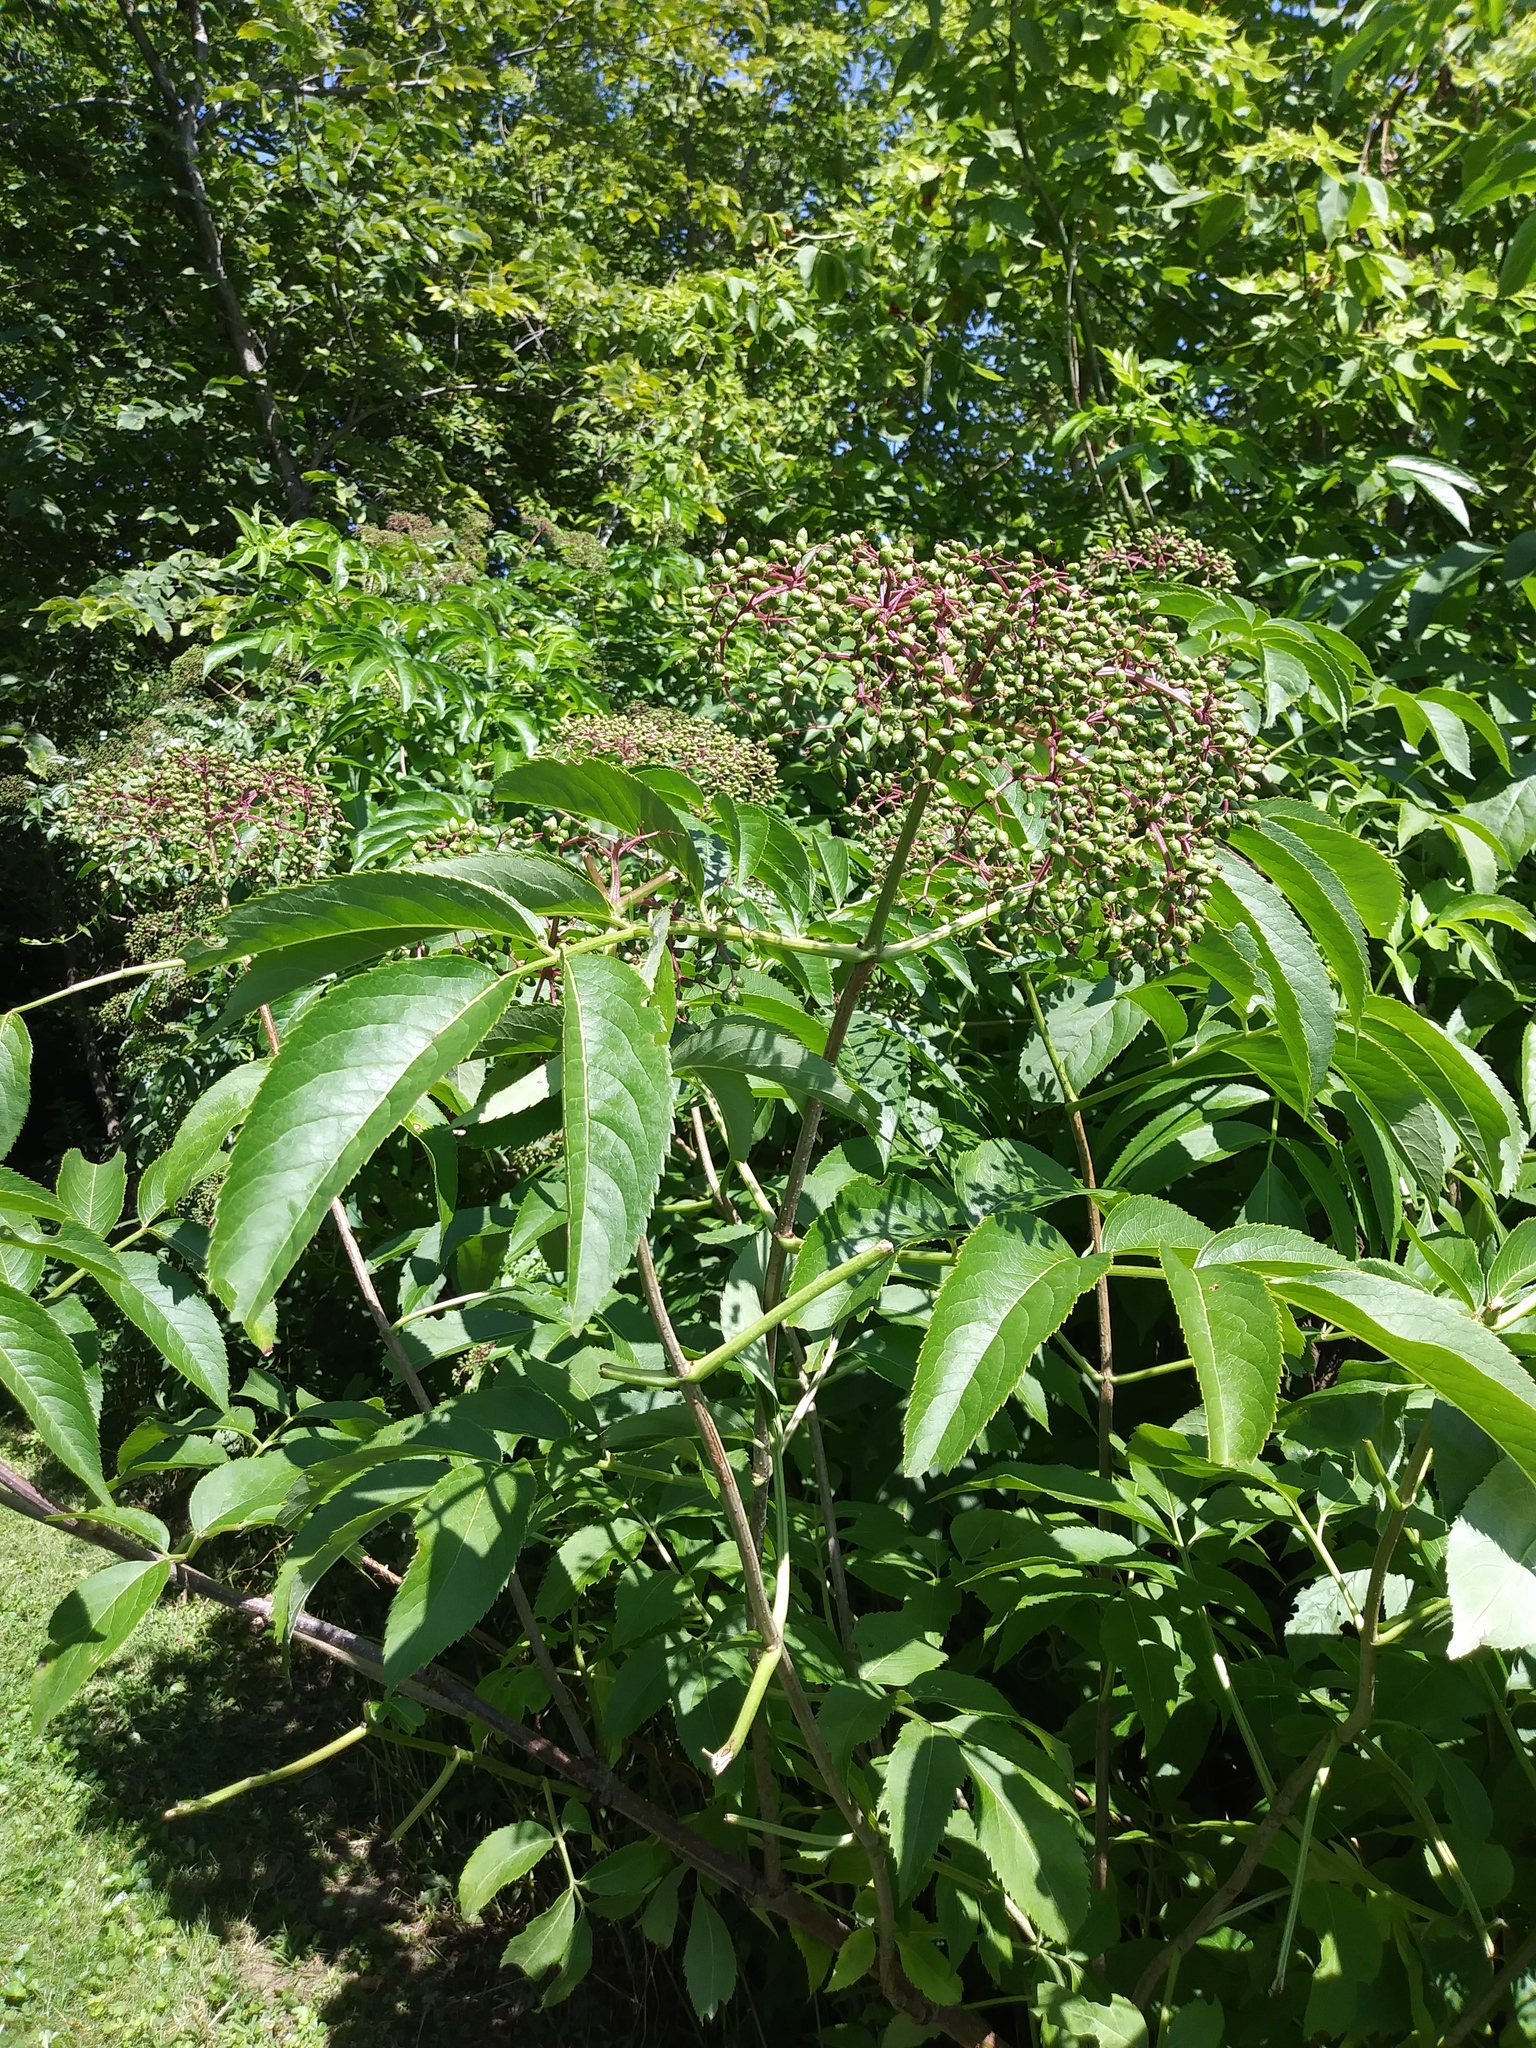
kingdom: Plantae
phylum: Tracheophyta
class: Magnoliopsida
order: Dipsacales
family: Viburnaceae
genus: Sambucus
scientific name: Sambucus canadensis
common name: American elder
